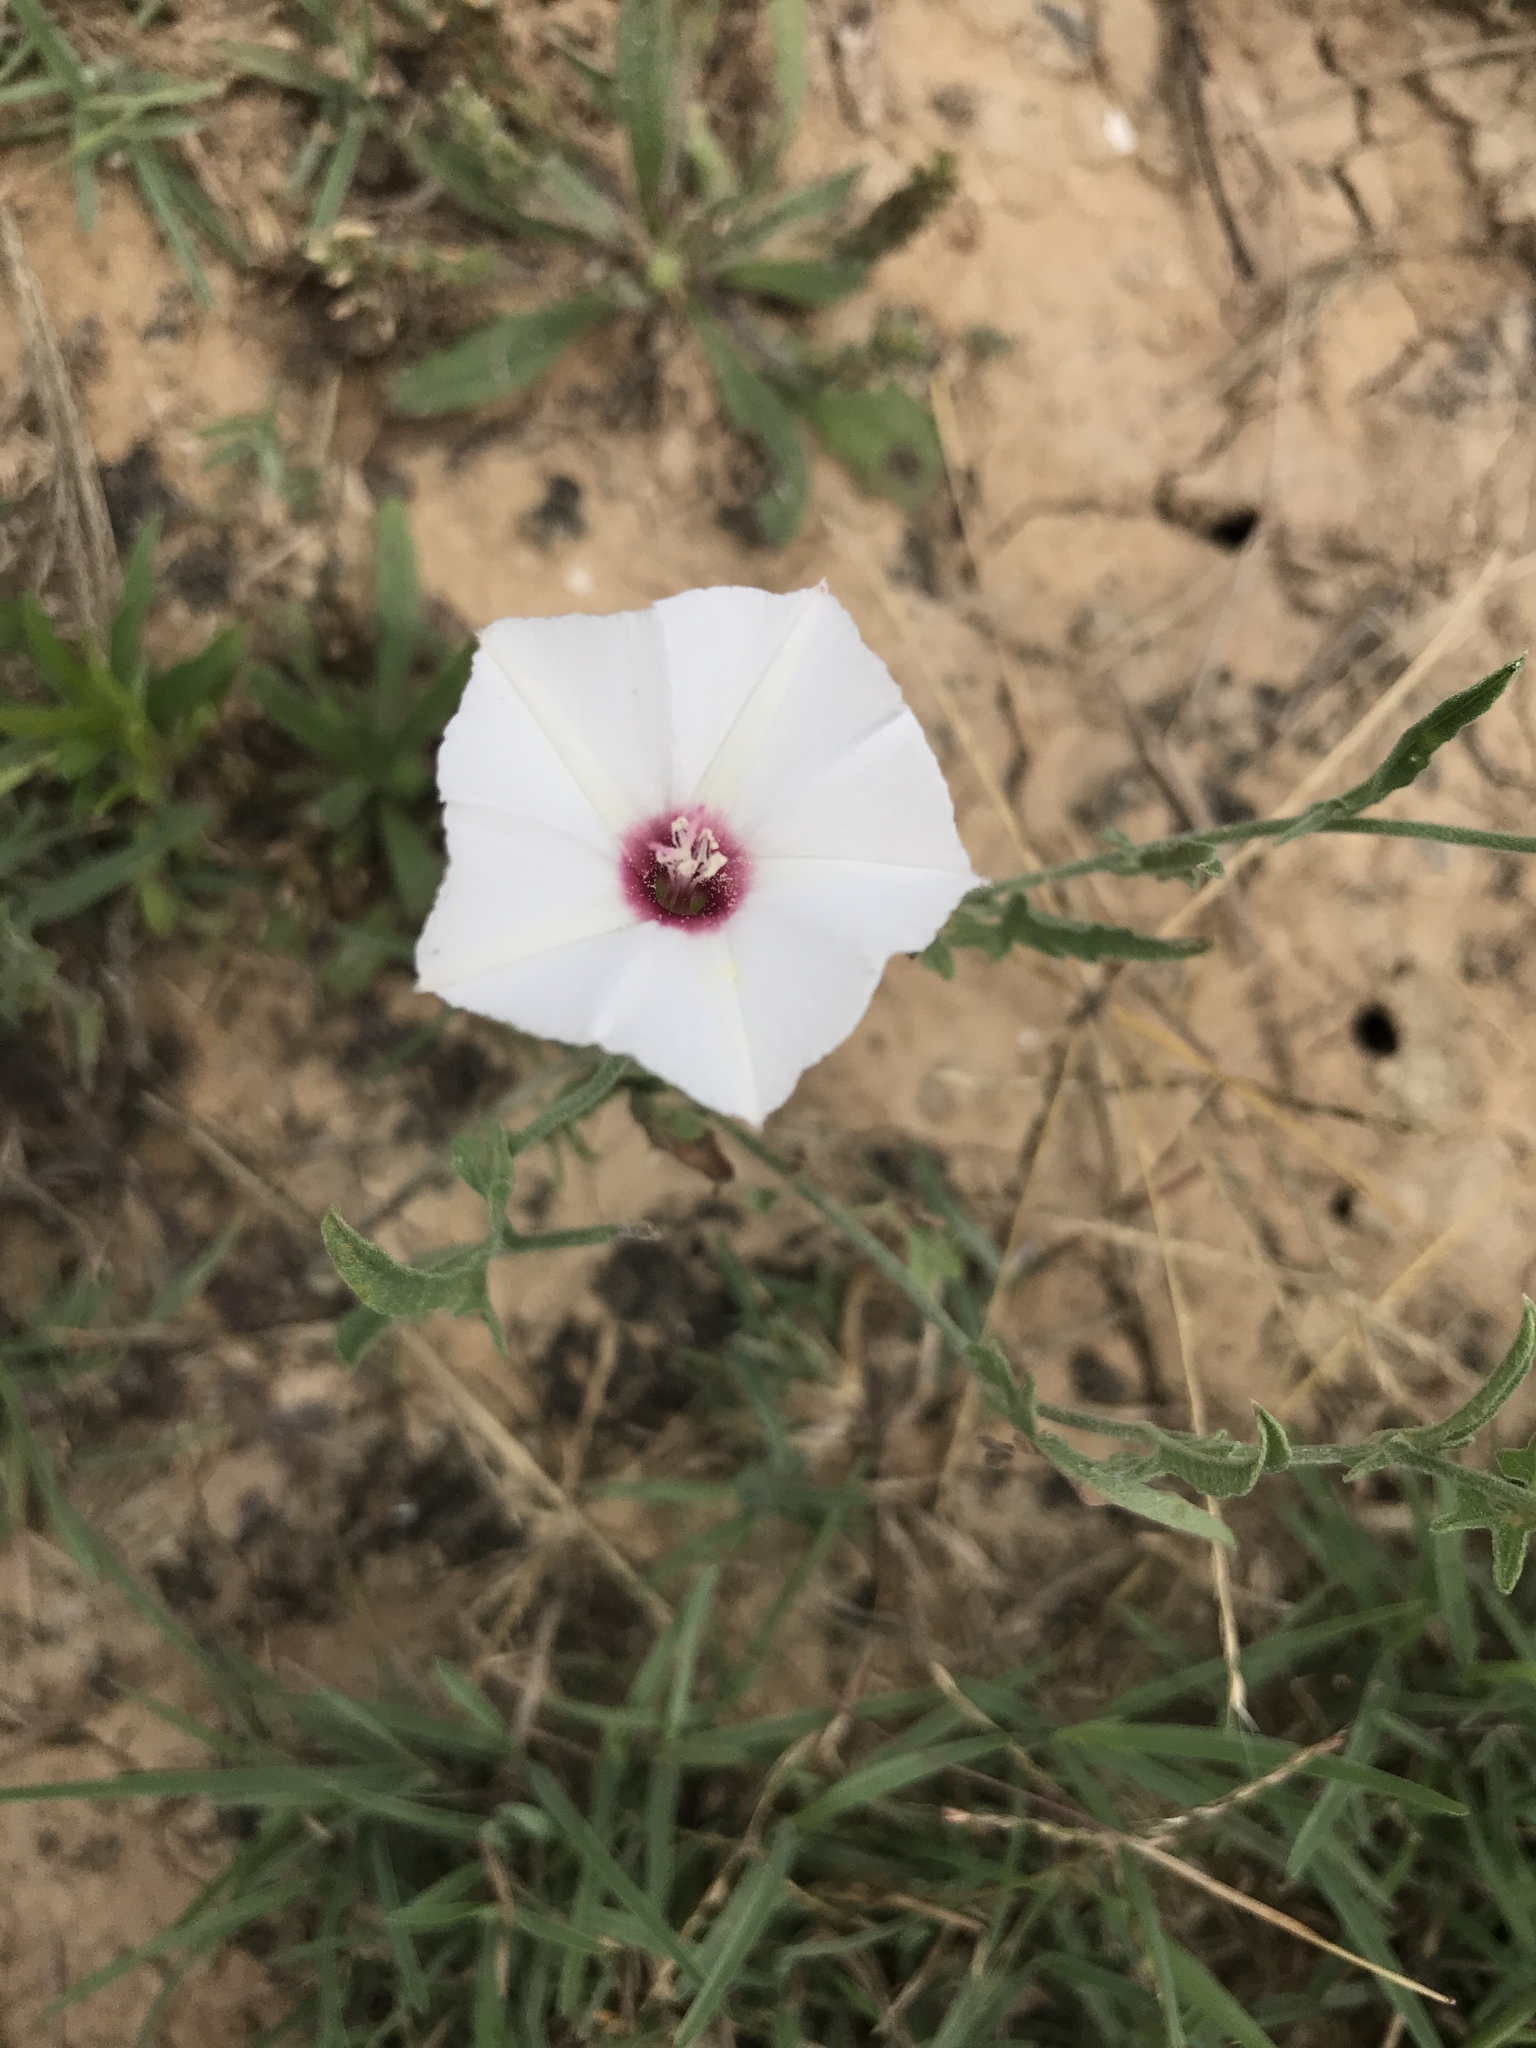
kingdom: Plantae
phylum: Tracheophyta
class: Magnoliopsida
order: Solanales
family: Convolvulaceae
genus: Convolvulus
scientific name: Convolvulus equitans
